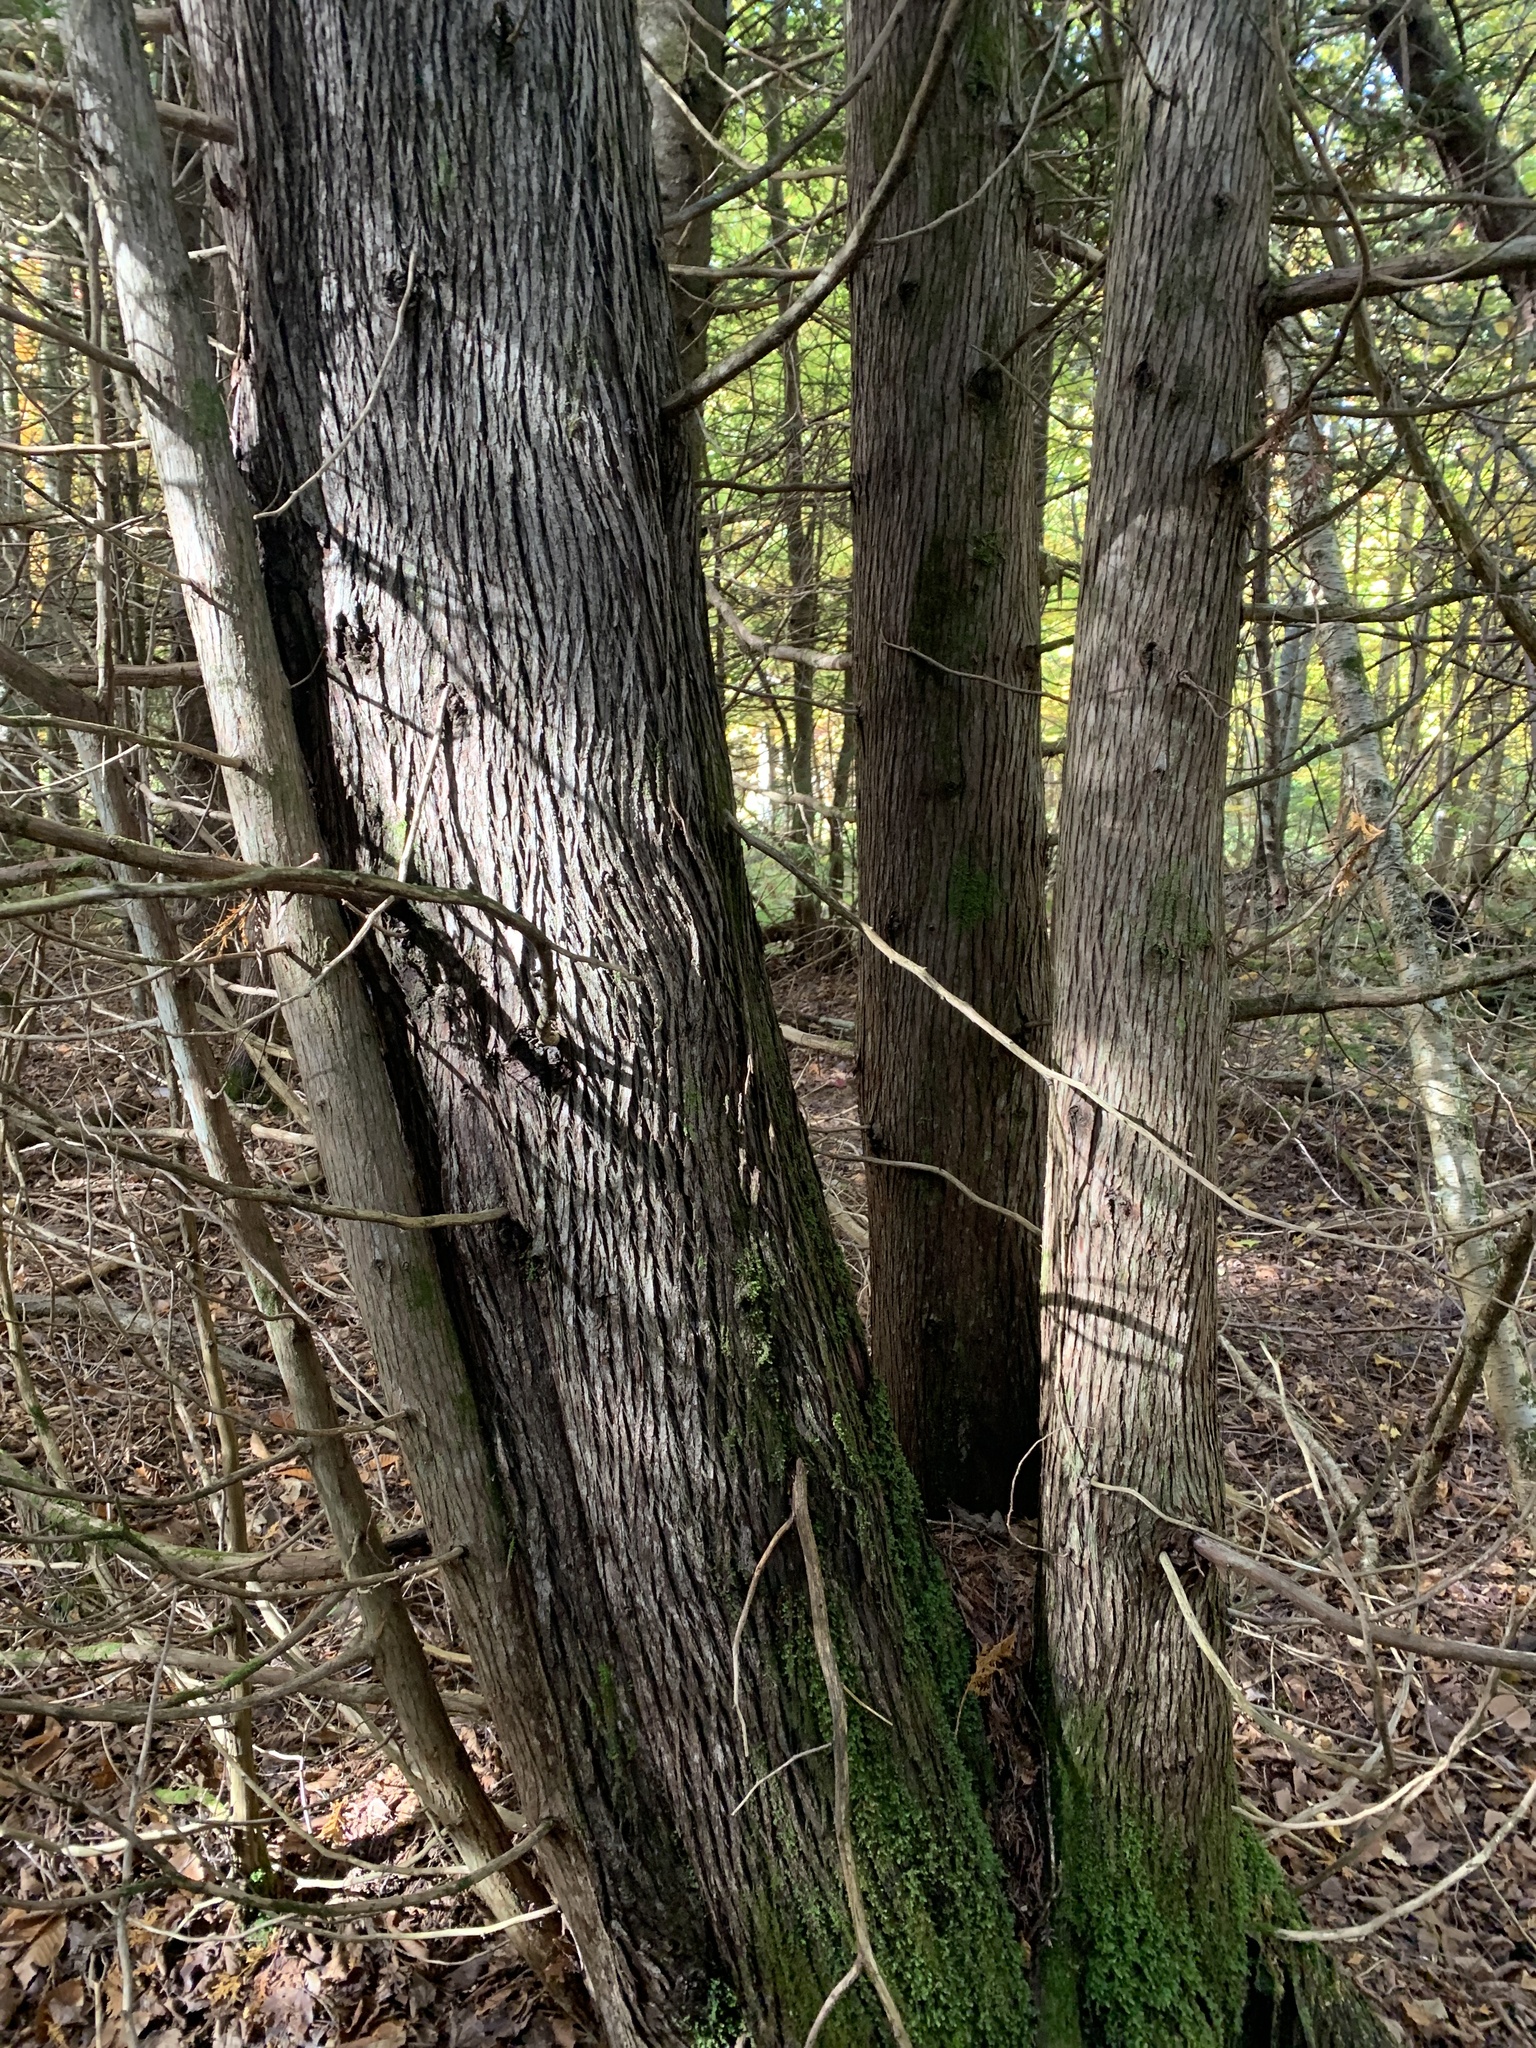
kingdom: Plantae
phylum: Tracheophyta
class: Pinopsida
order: Pinales
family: Cupressaceae
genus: Thuja
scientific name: Thuja occidentalis
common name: Northern white-cedar
